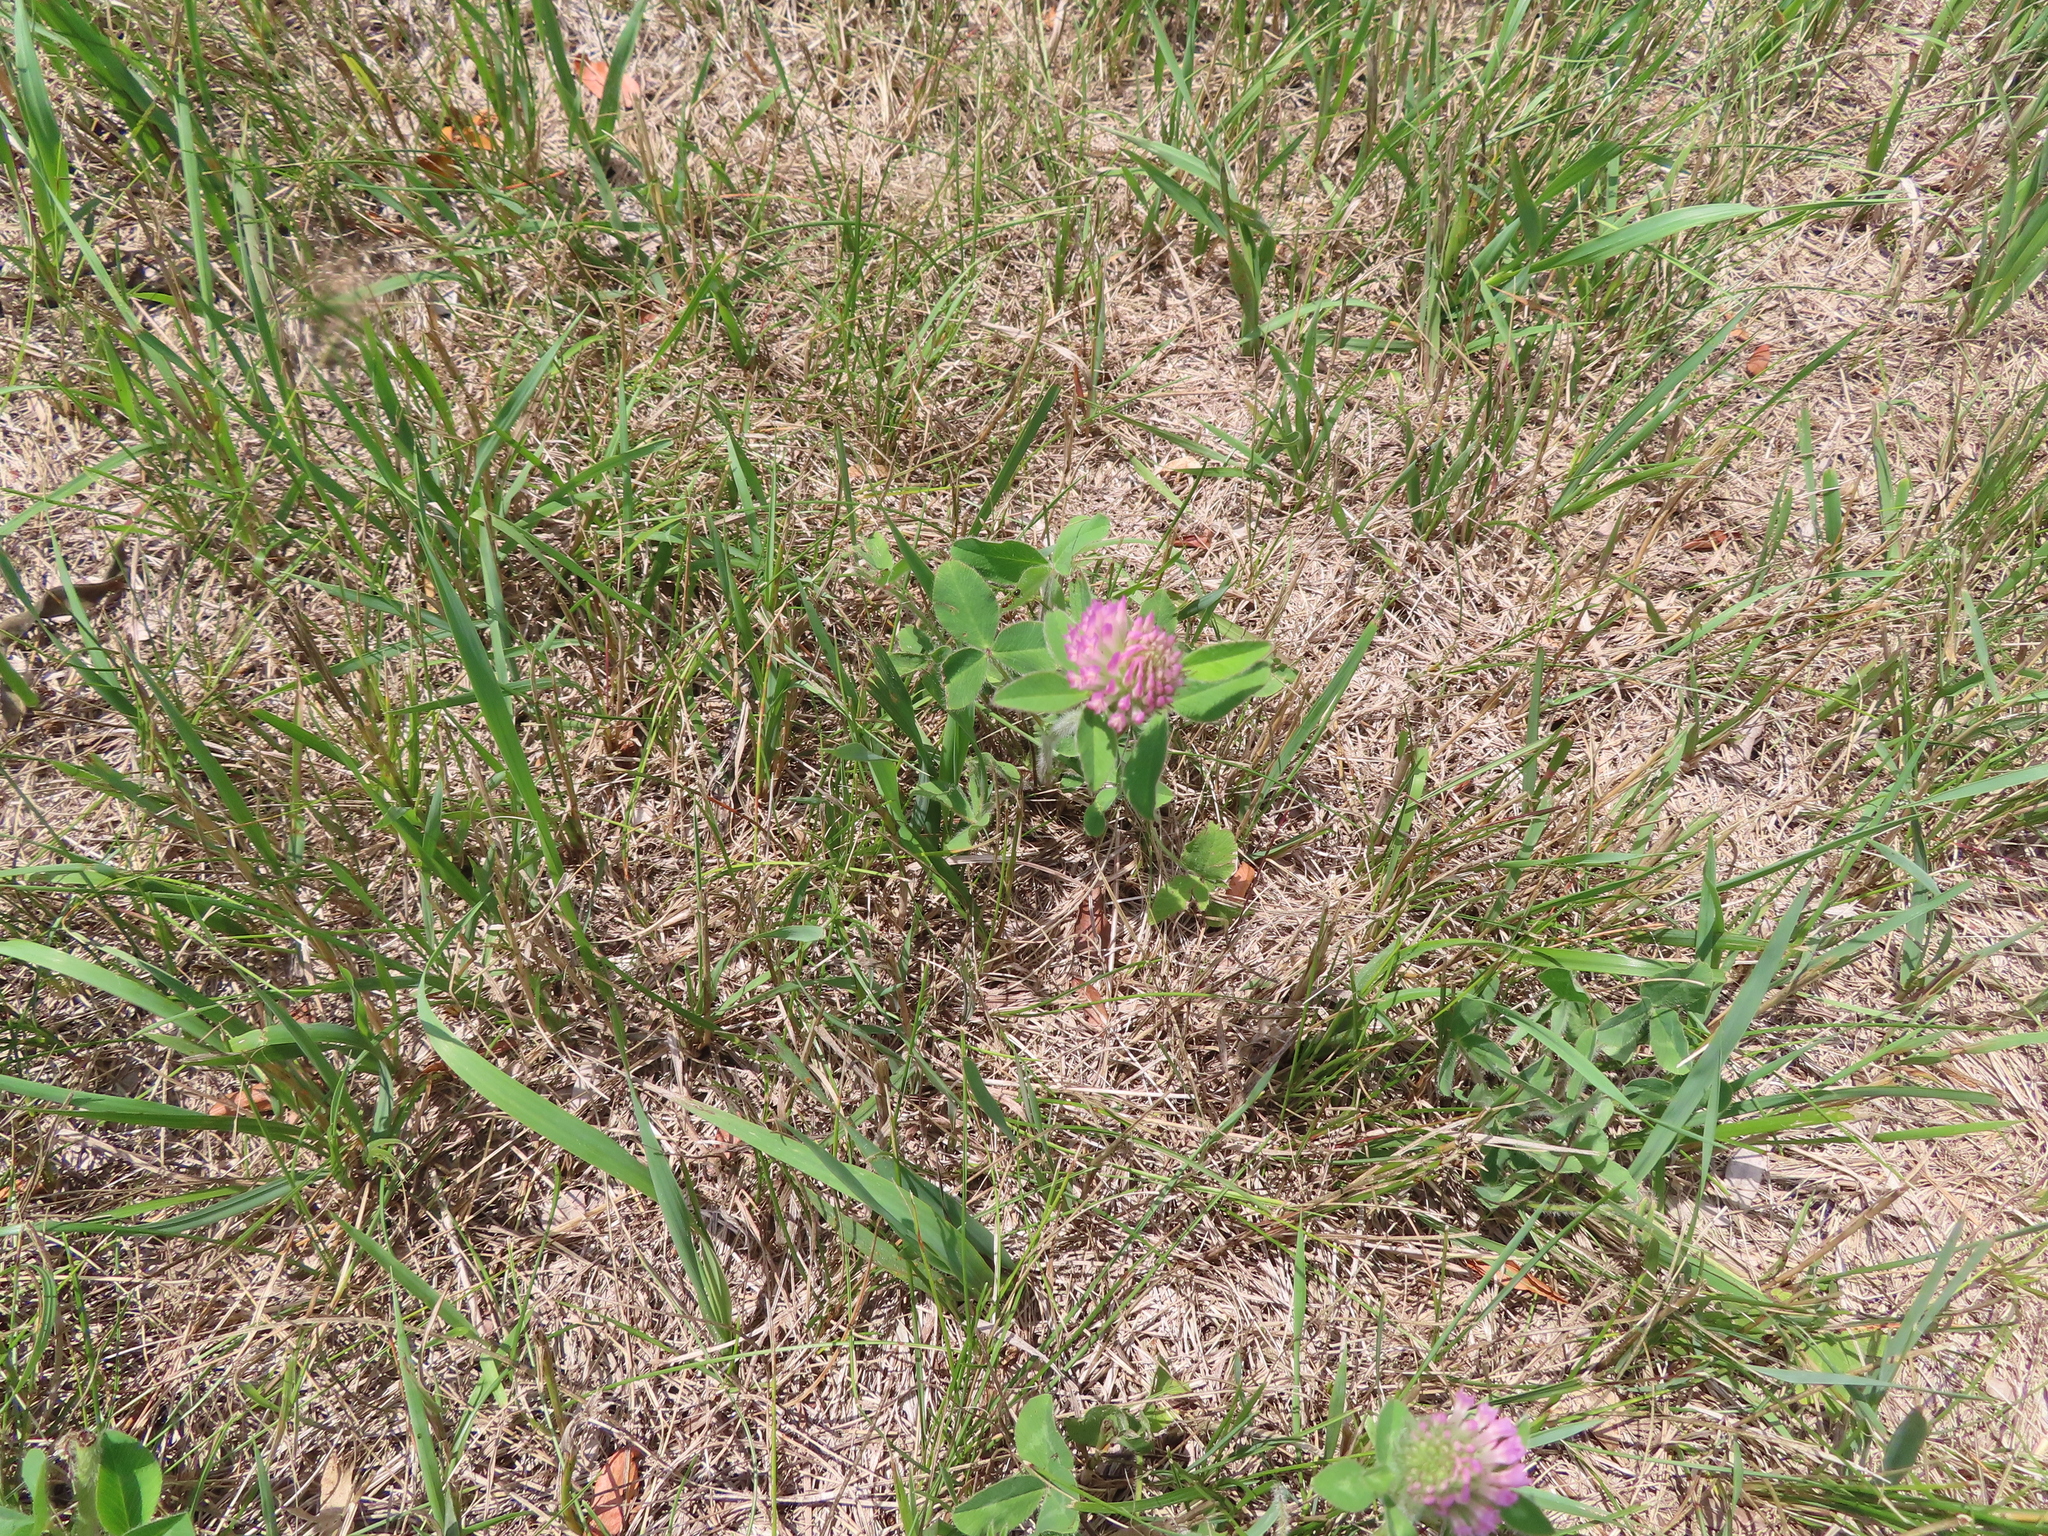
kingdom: Plantae
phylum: Tracheophyta
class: Magnoliopsida
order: Fabales
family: Fabaceae
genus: Trifolium
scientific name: Trifolium pratense
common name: Red clover
